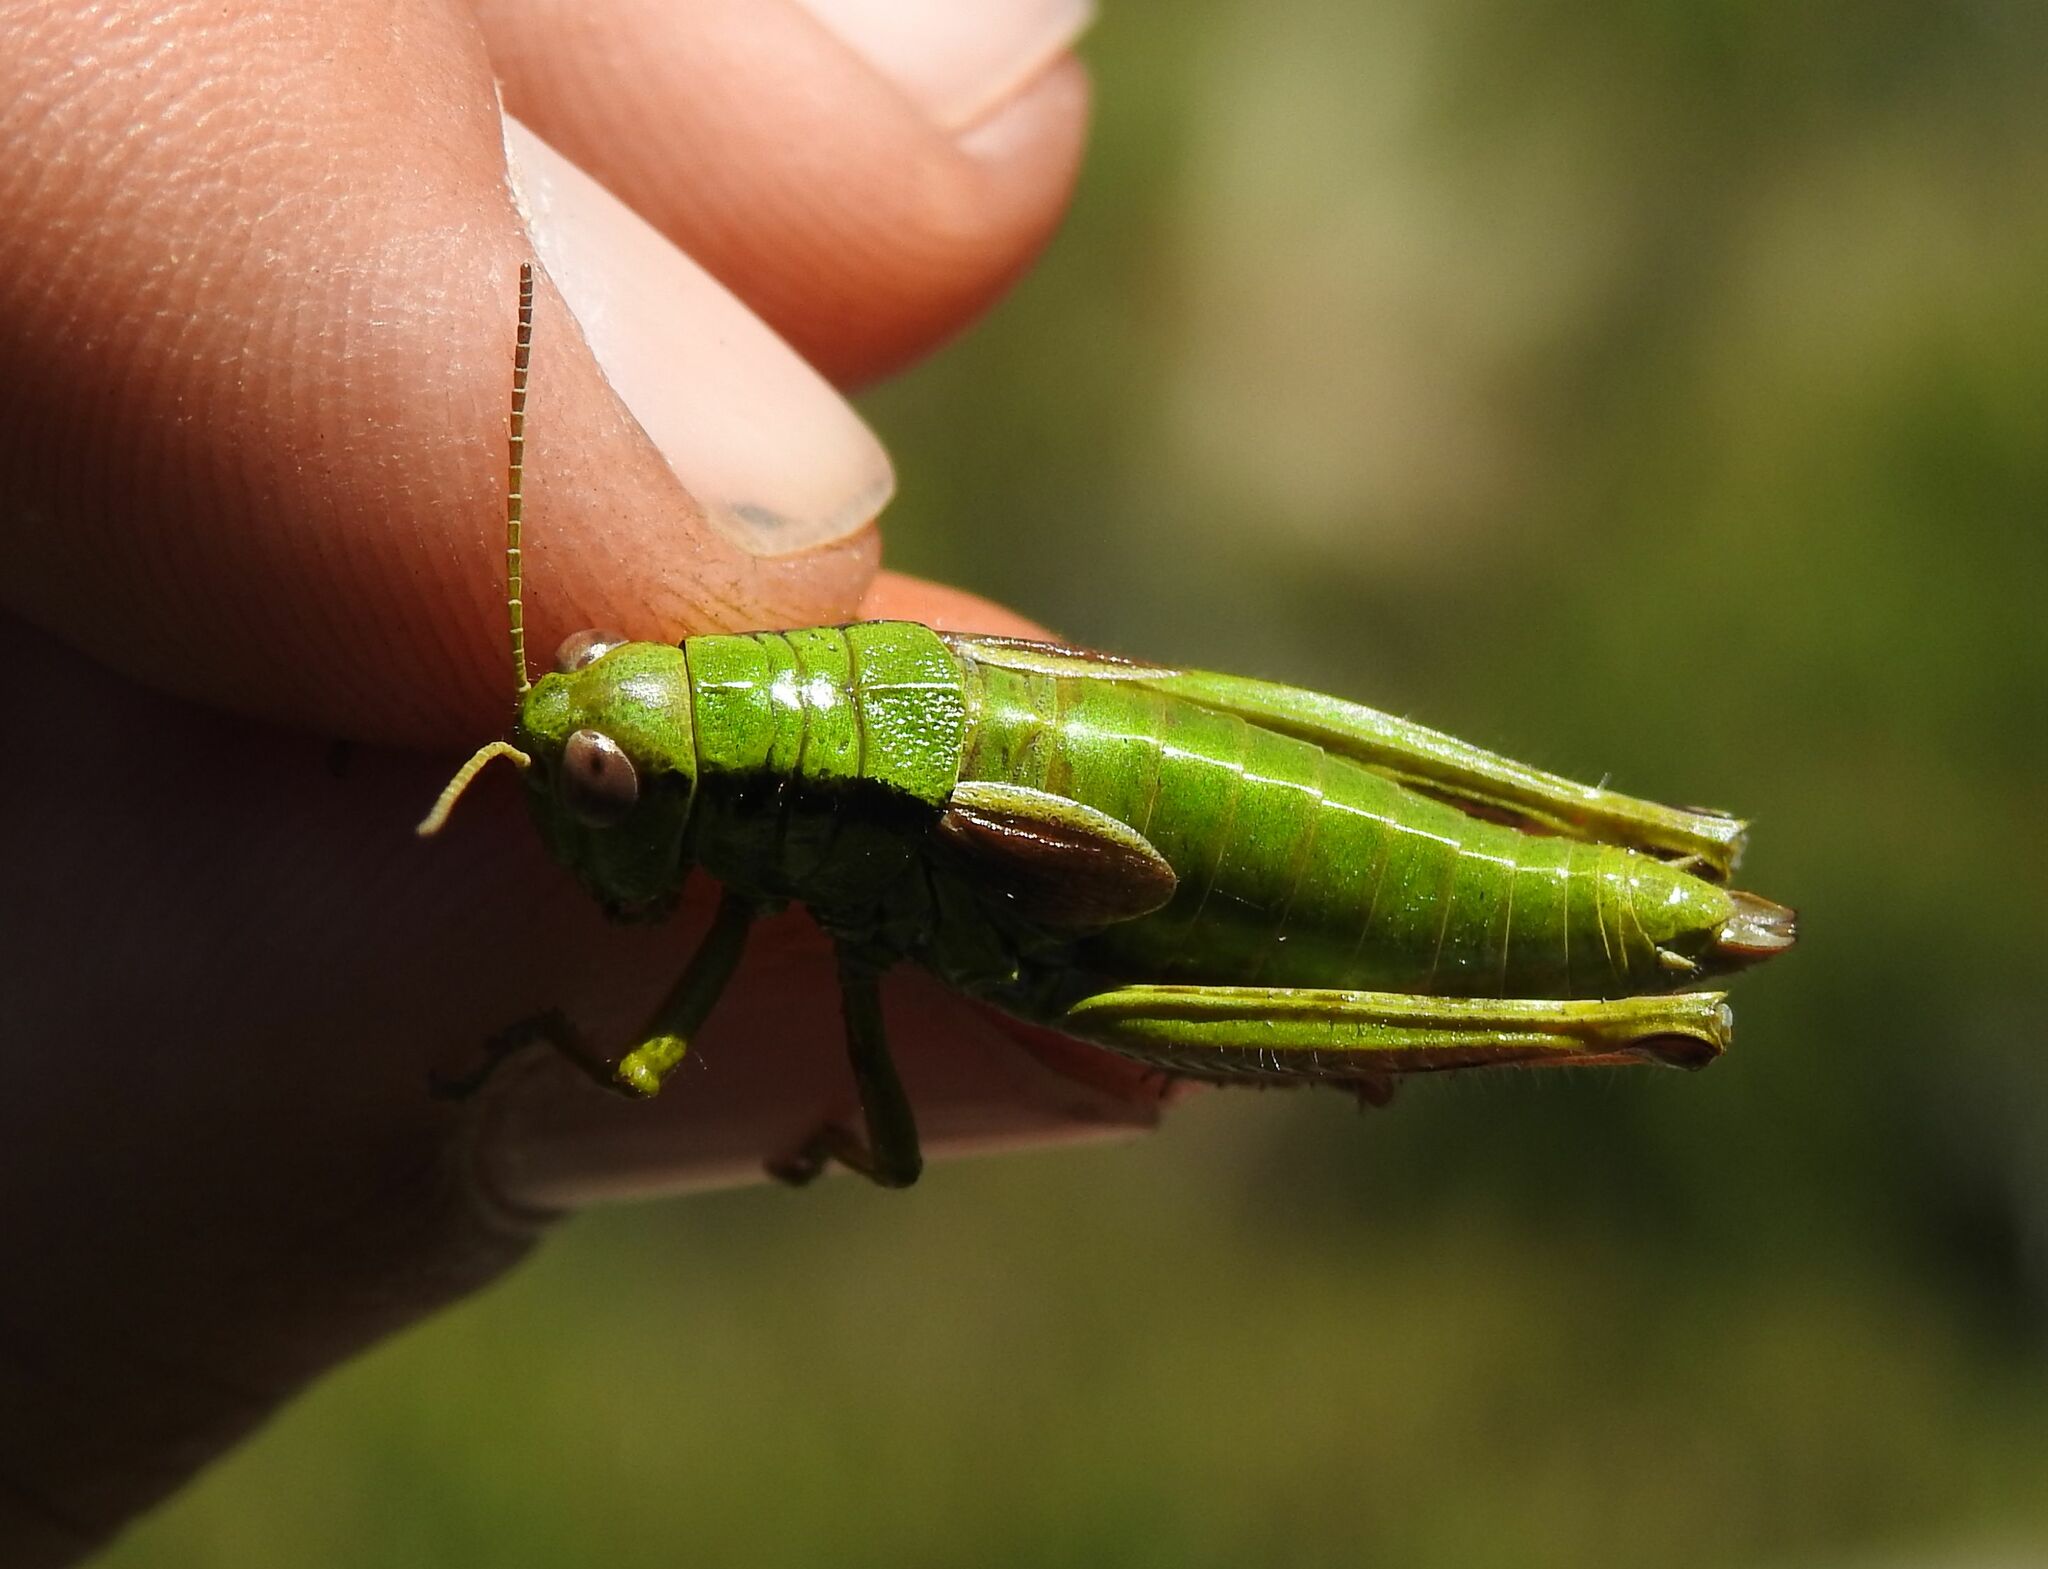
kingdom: Animalia
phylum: Arthropoda
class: Insecta
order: Orthoptera
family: Acrididae
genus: Miramella
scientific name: Miramella alpina
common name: Green mountain grasshopper
